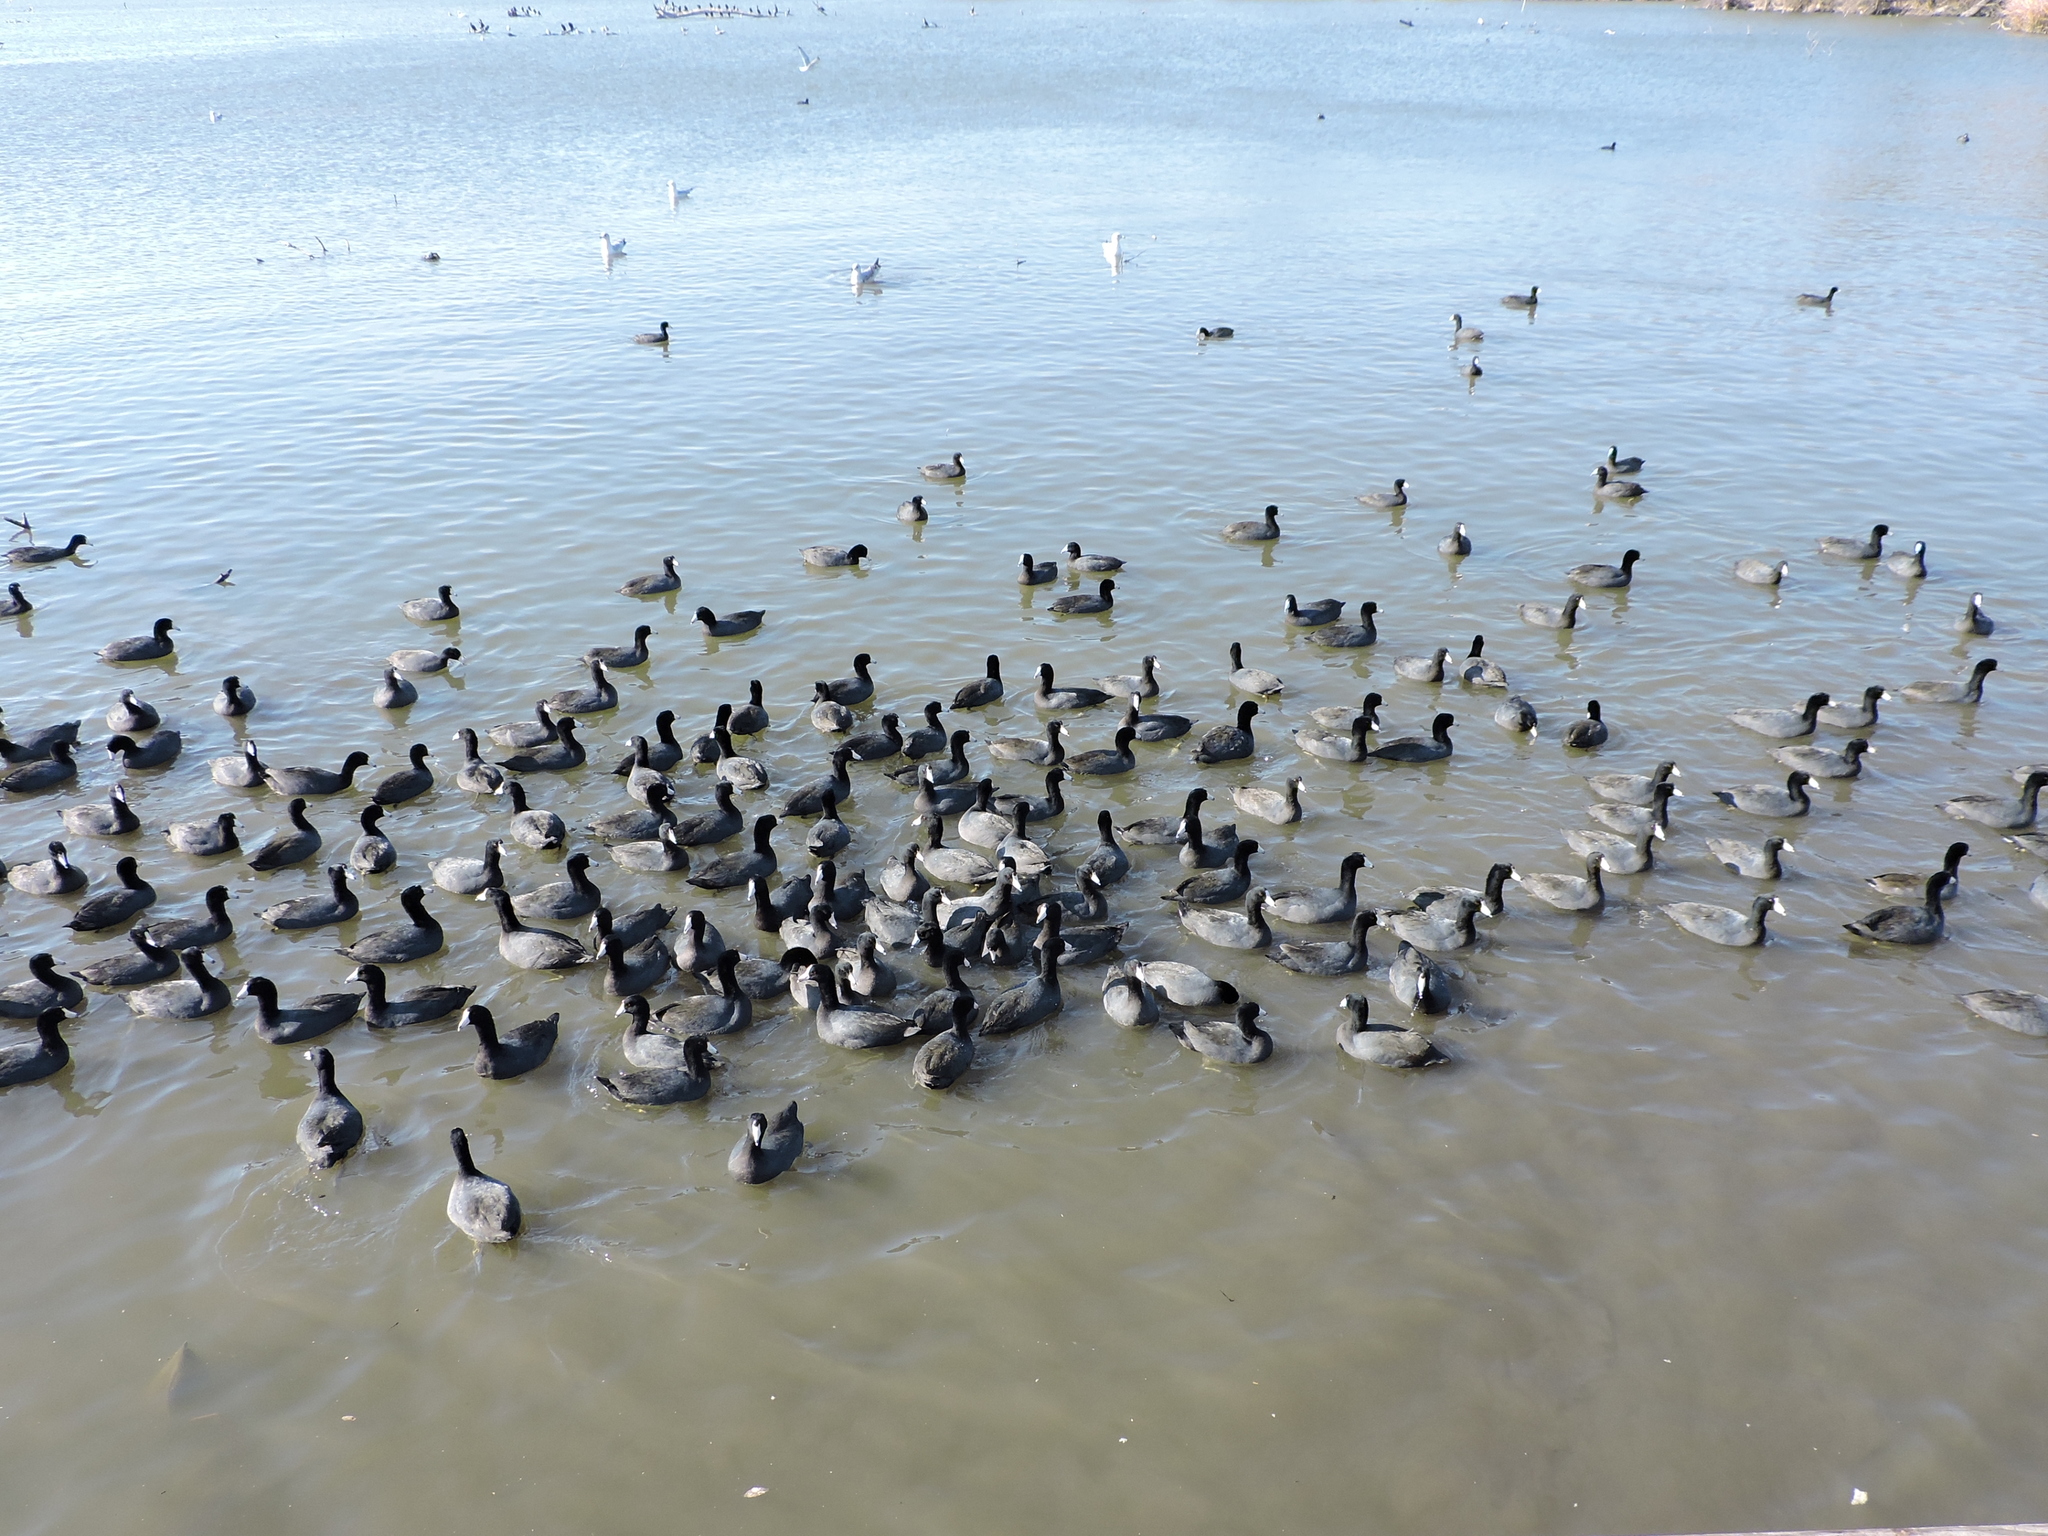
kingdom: Animalia
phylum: Chordata
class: Aves
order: Gruiformes
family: Rallidae
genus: Fulica
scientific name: Fulica americana
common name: American coot
